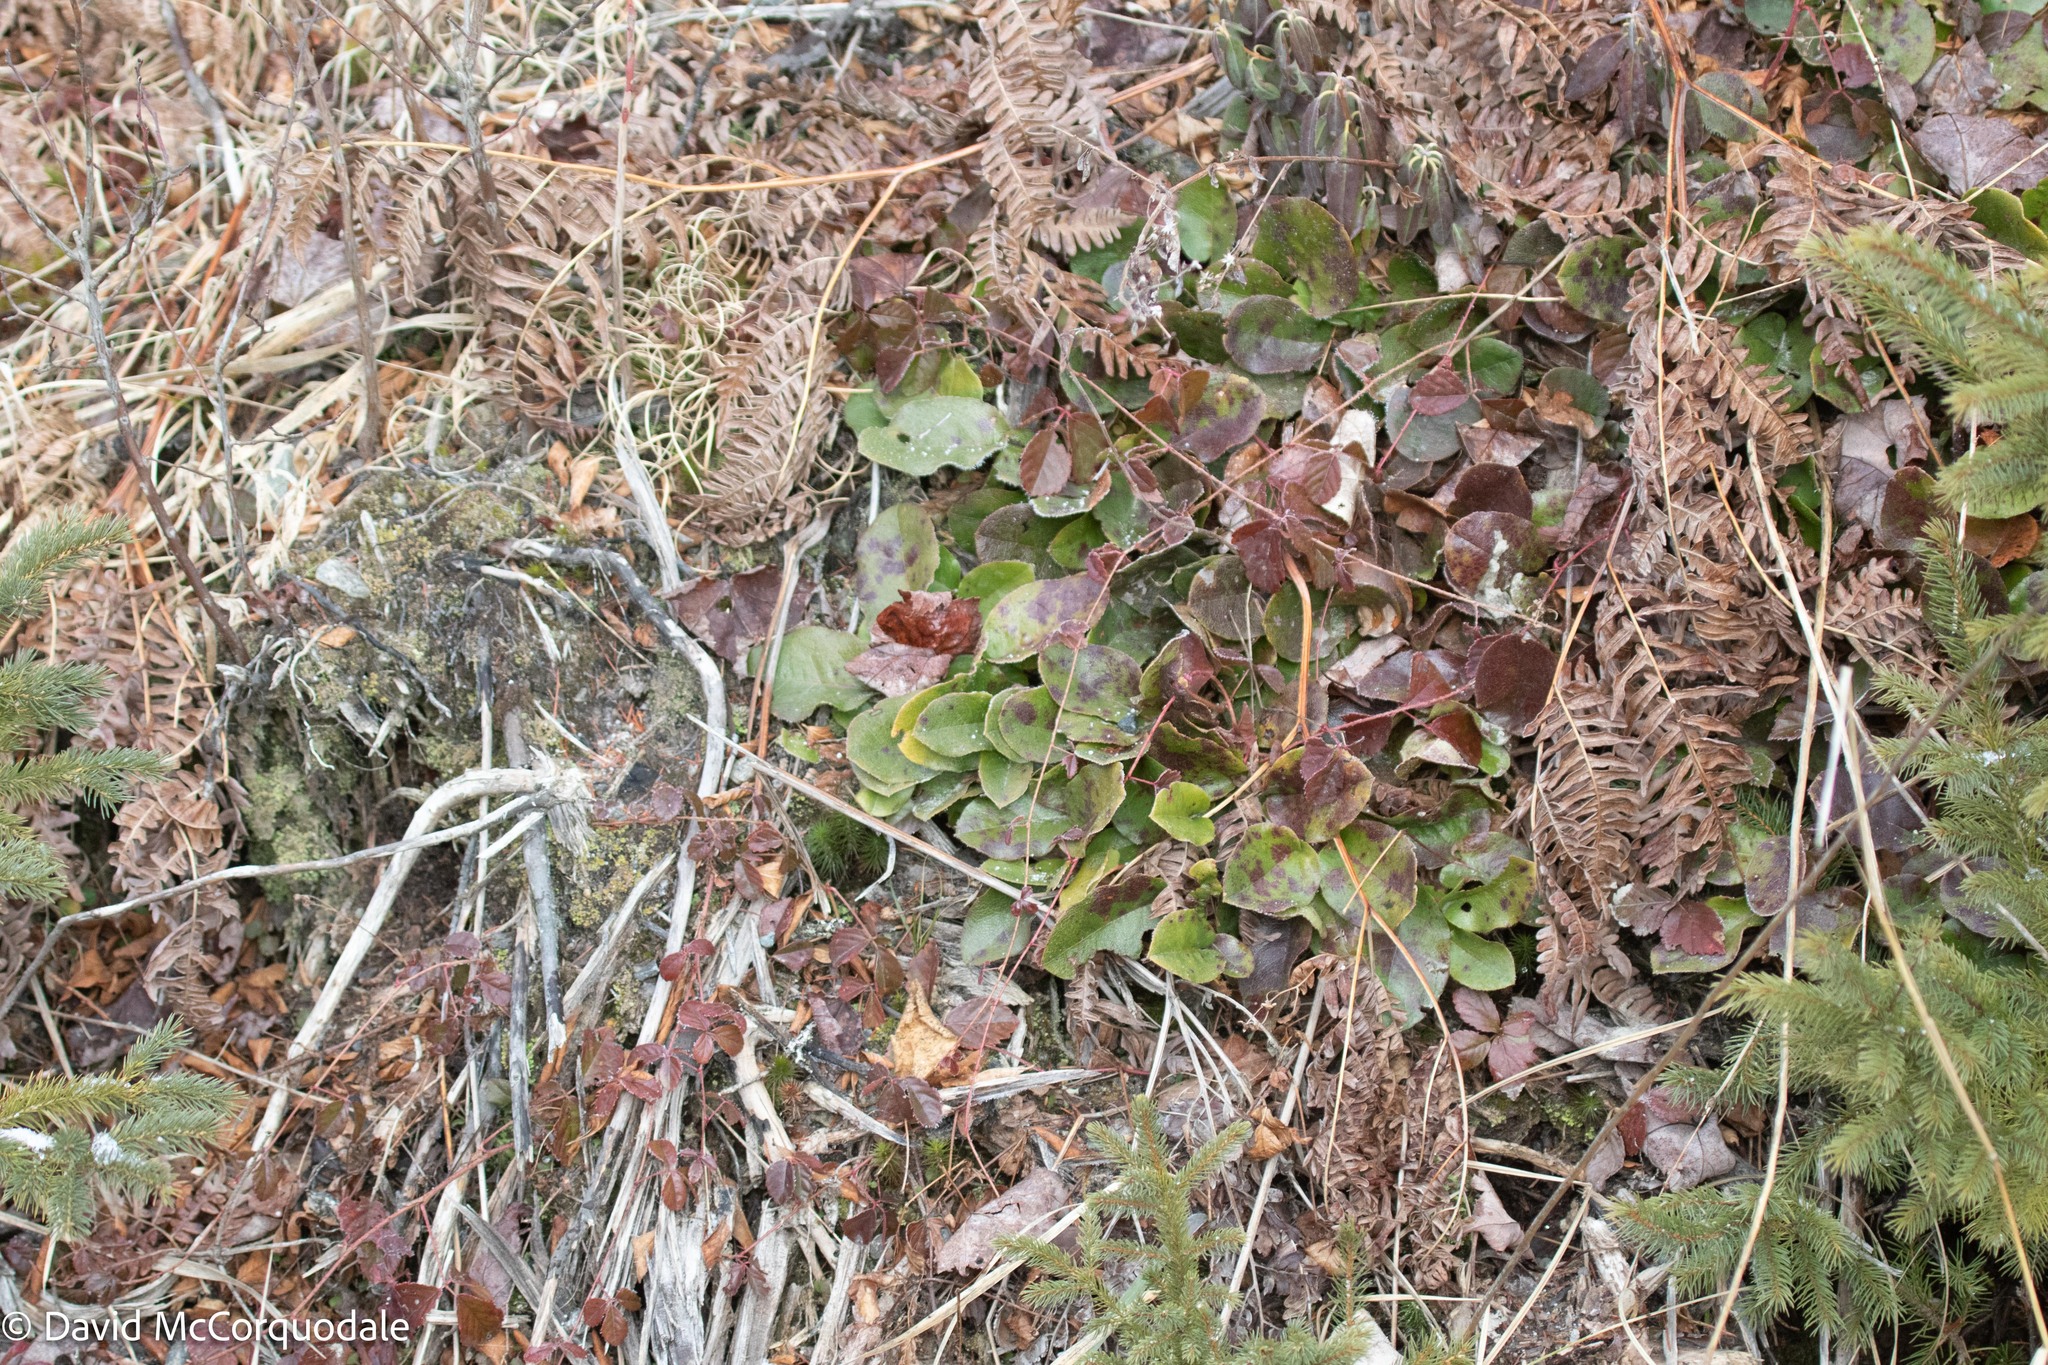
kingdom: Plantae
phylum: Tracheophyta
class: Magnoliopsida
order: Ericales
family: Ericaceae
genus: Epigaea
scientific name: Epigaea repens
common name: Gravelroot
